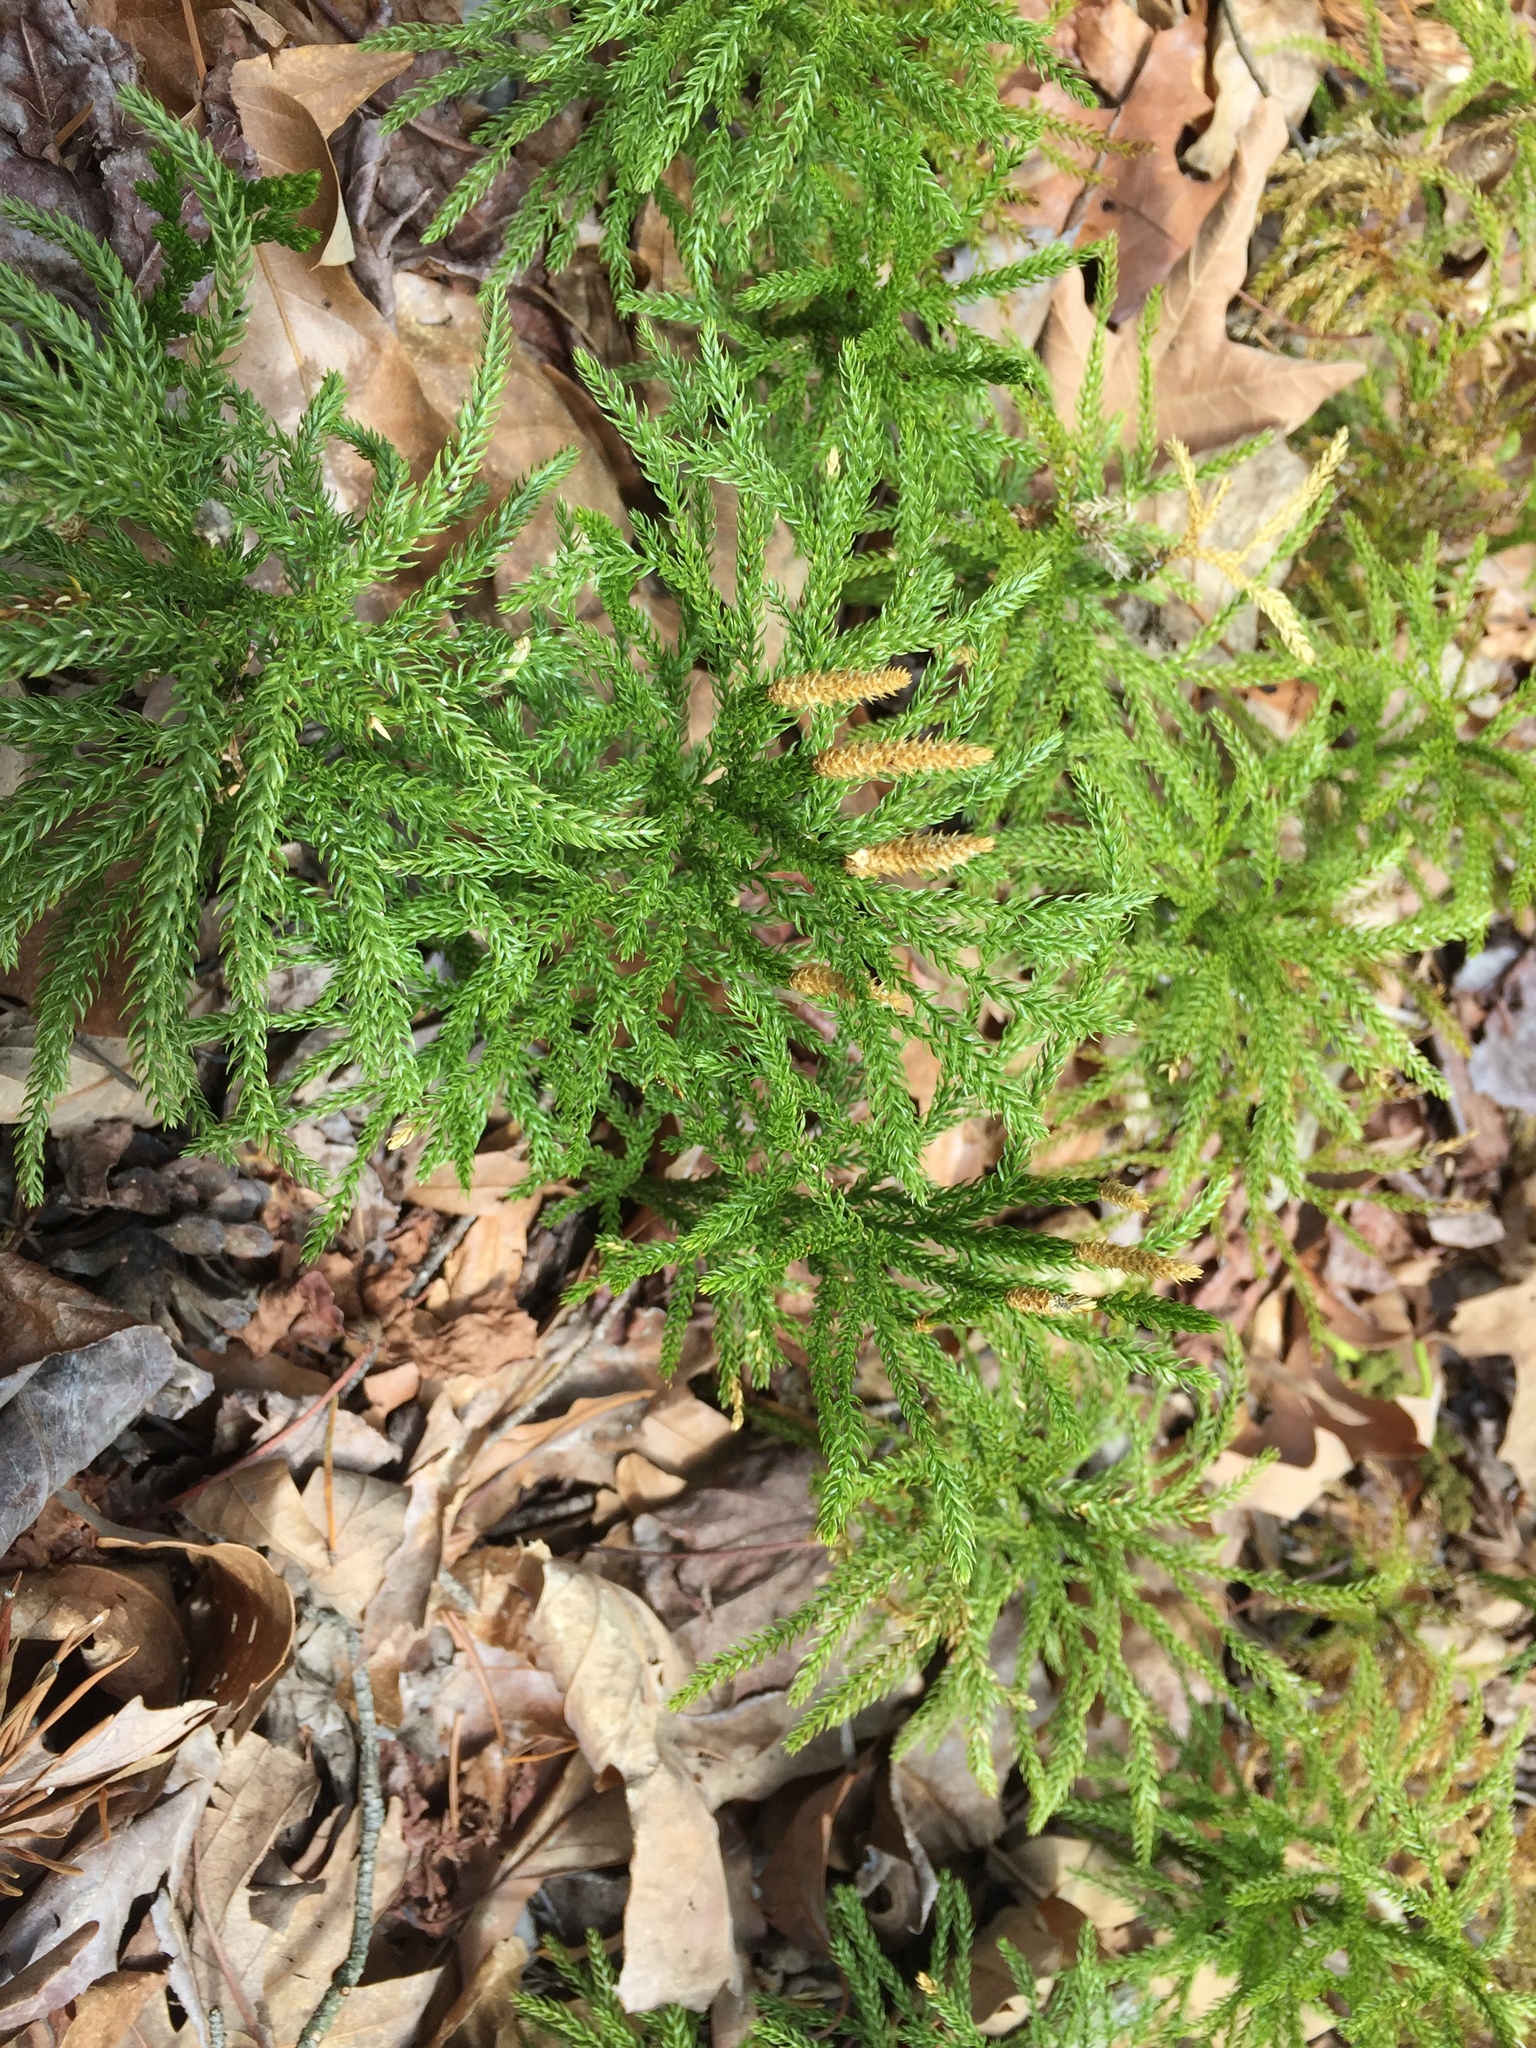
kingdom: Plantae
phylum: Tracheophyta
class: Lycopodiopsida
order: Lycopodiales
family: Lycopodiaceae
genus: Dendrolycopodium
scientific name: Dendrolycopodium hickeyi
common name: Hickey's clubmoss
